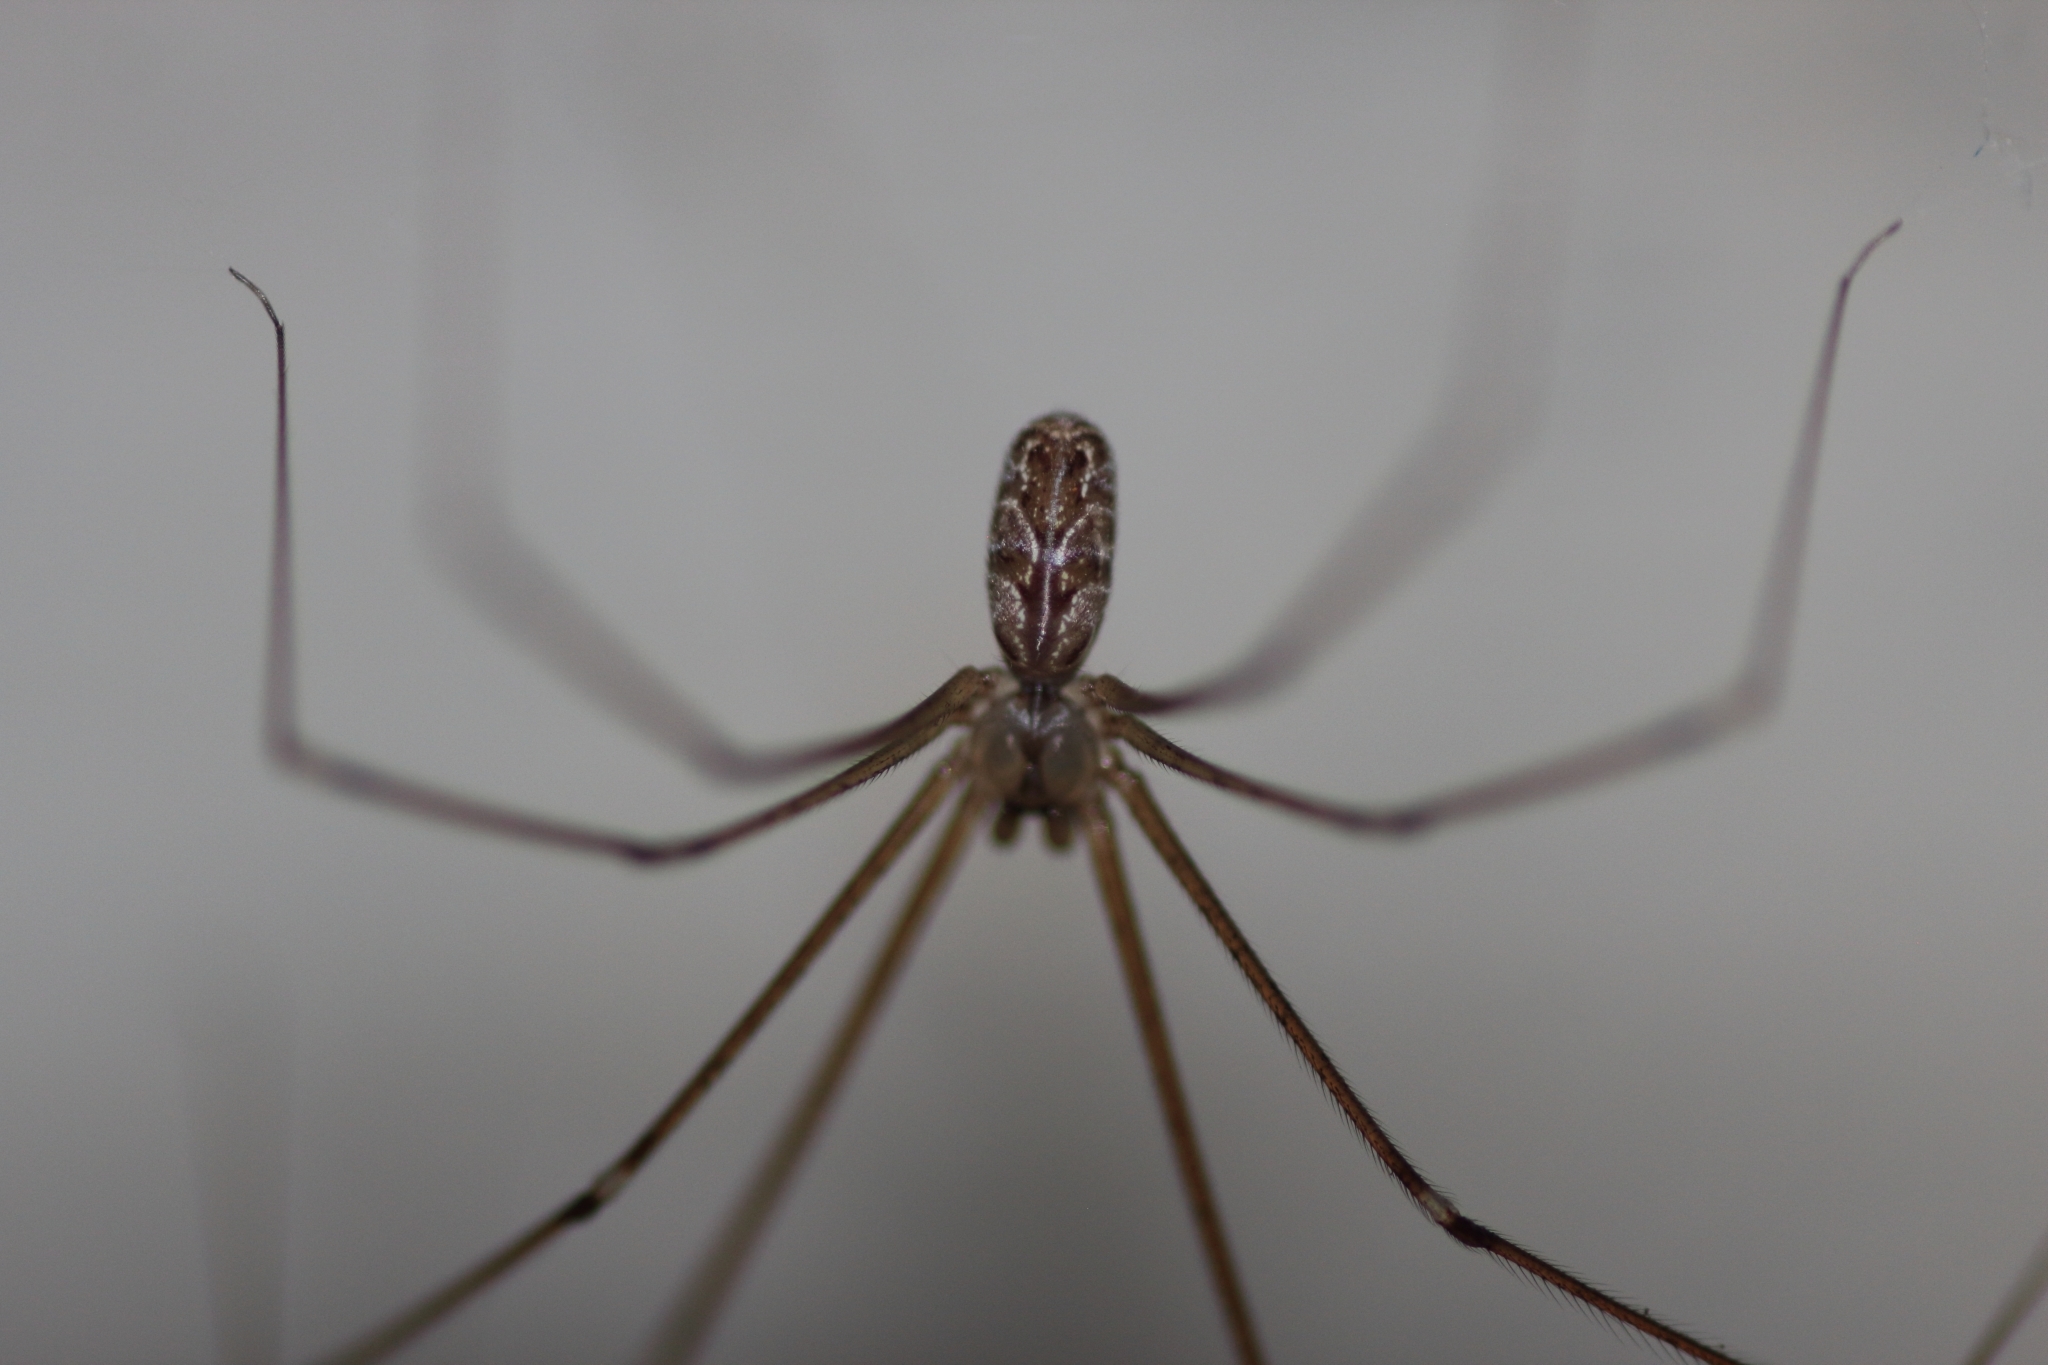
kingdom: Animalia
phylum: Arthropoda
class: Arachnida
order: Araneae
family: Pholcidae
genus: Holocnemus
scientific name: Holocnemus pluchei
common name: Marbled cellar spider
